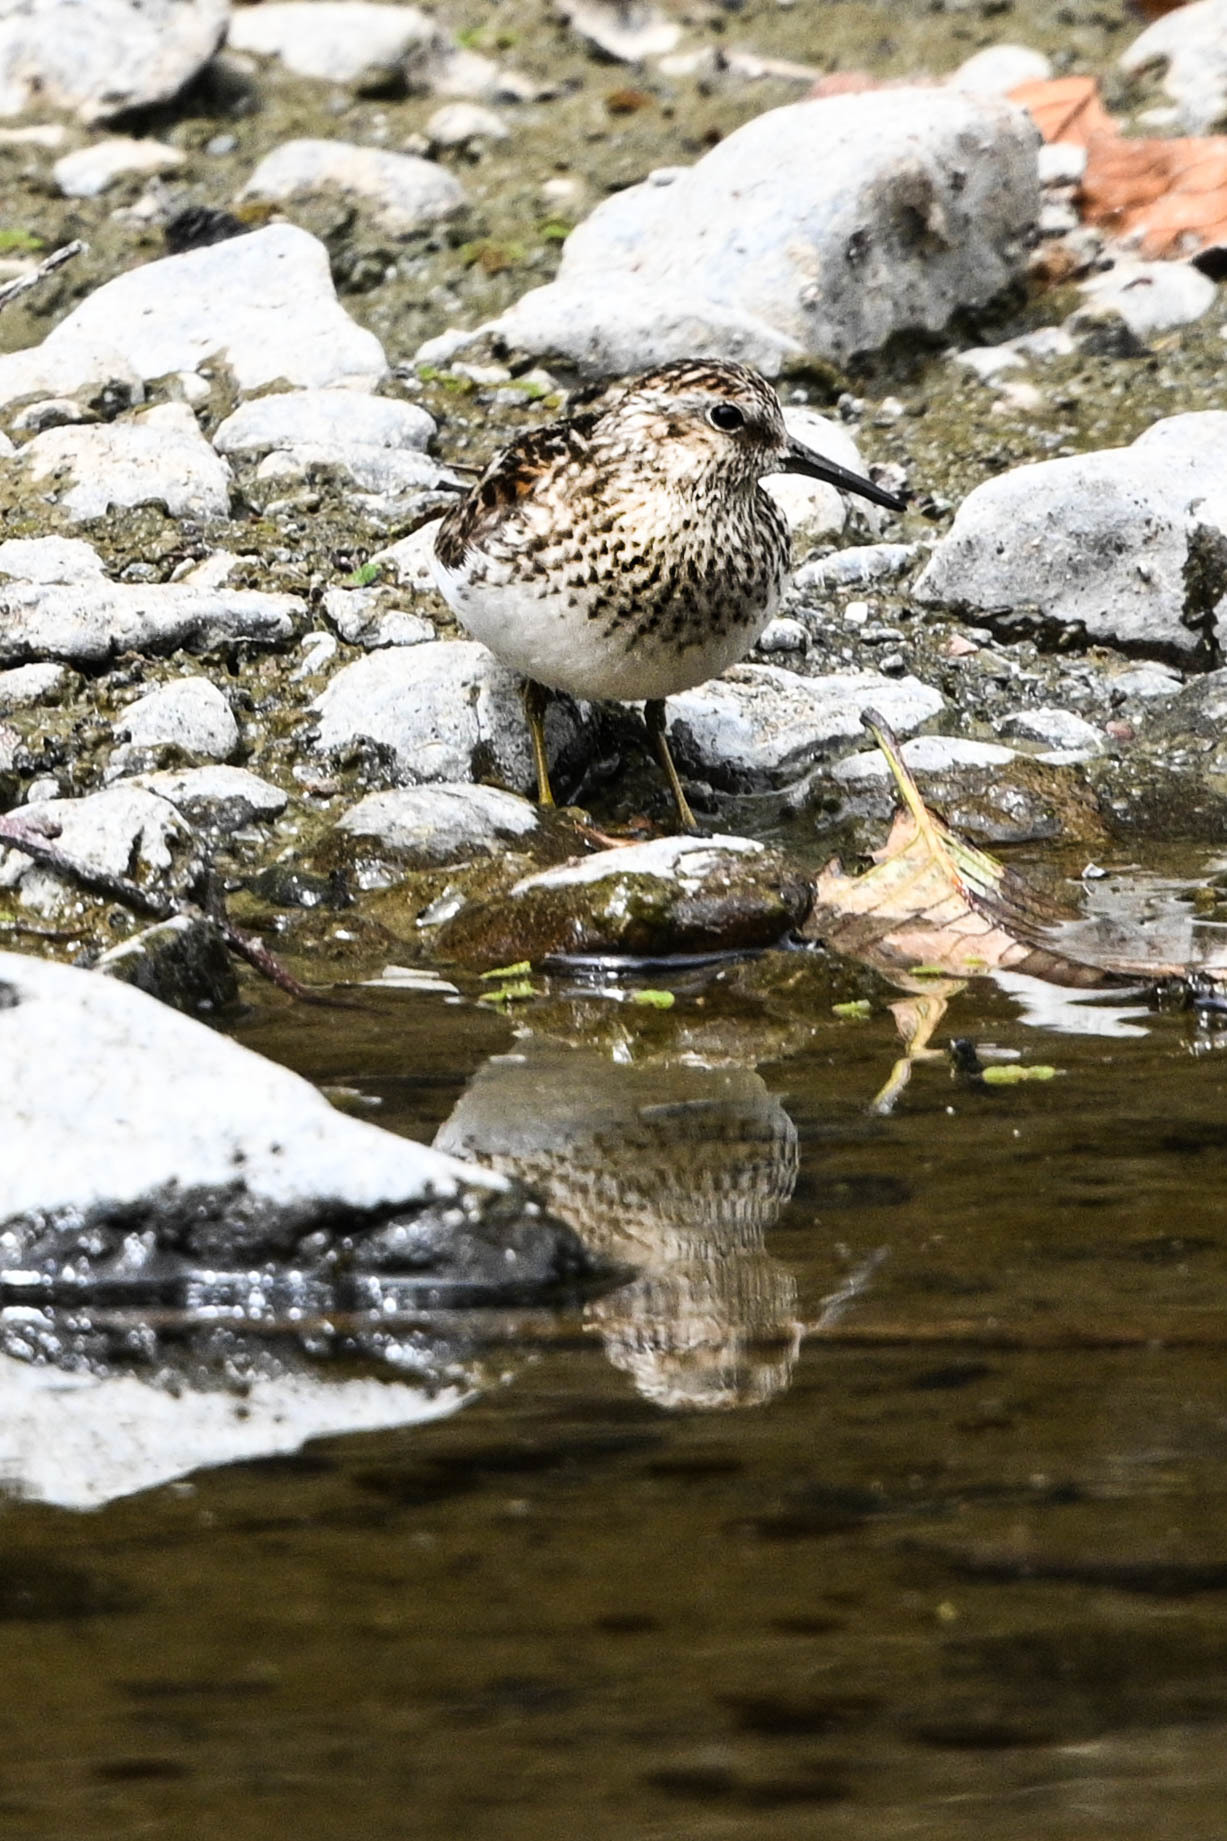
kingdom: Animalia
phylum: Chordata
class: Aves
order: Charadriiformes
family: Scolopacidae
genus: Calidris
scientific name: Calidris minutilla
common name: Least sandpiper
